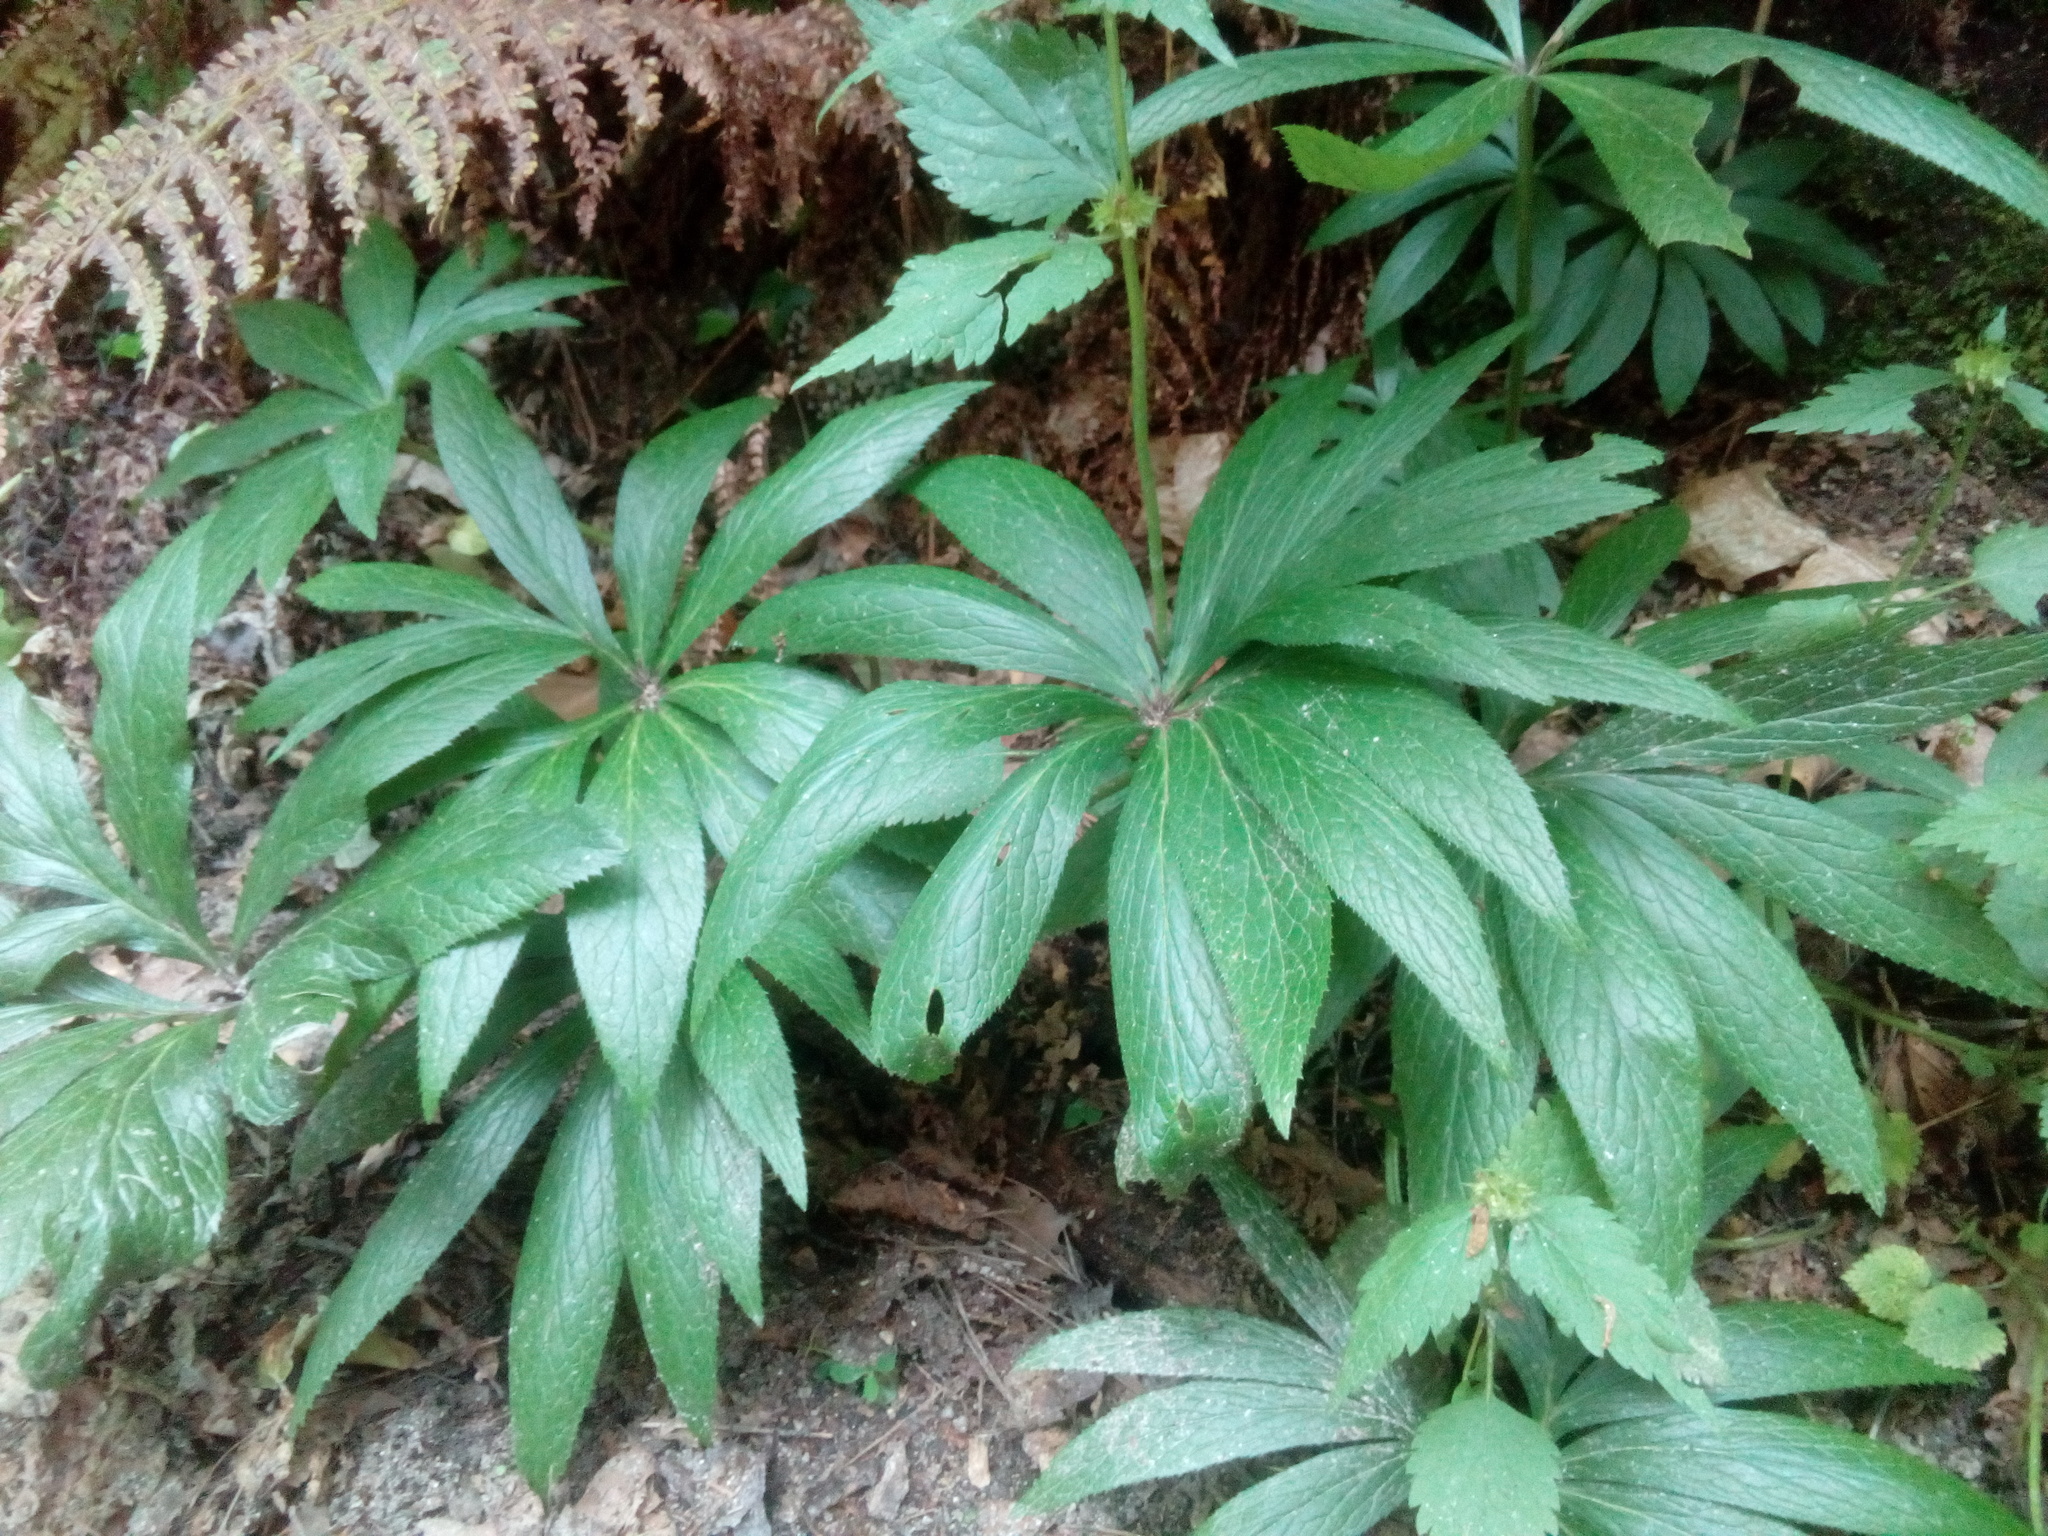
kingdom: Plantae
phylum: Tracheophyta
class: Magnoliopsida
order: Ranunculales
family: Ranunculaceae
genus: Helleborus
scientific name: Helleborus viridis
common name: Green hellebore
